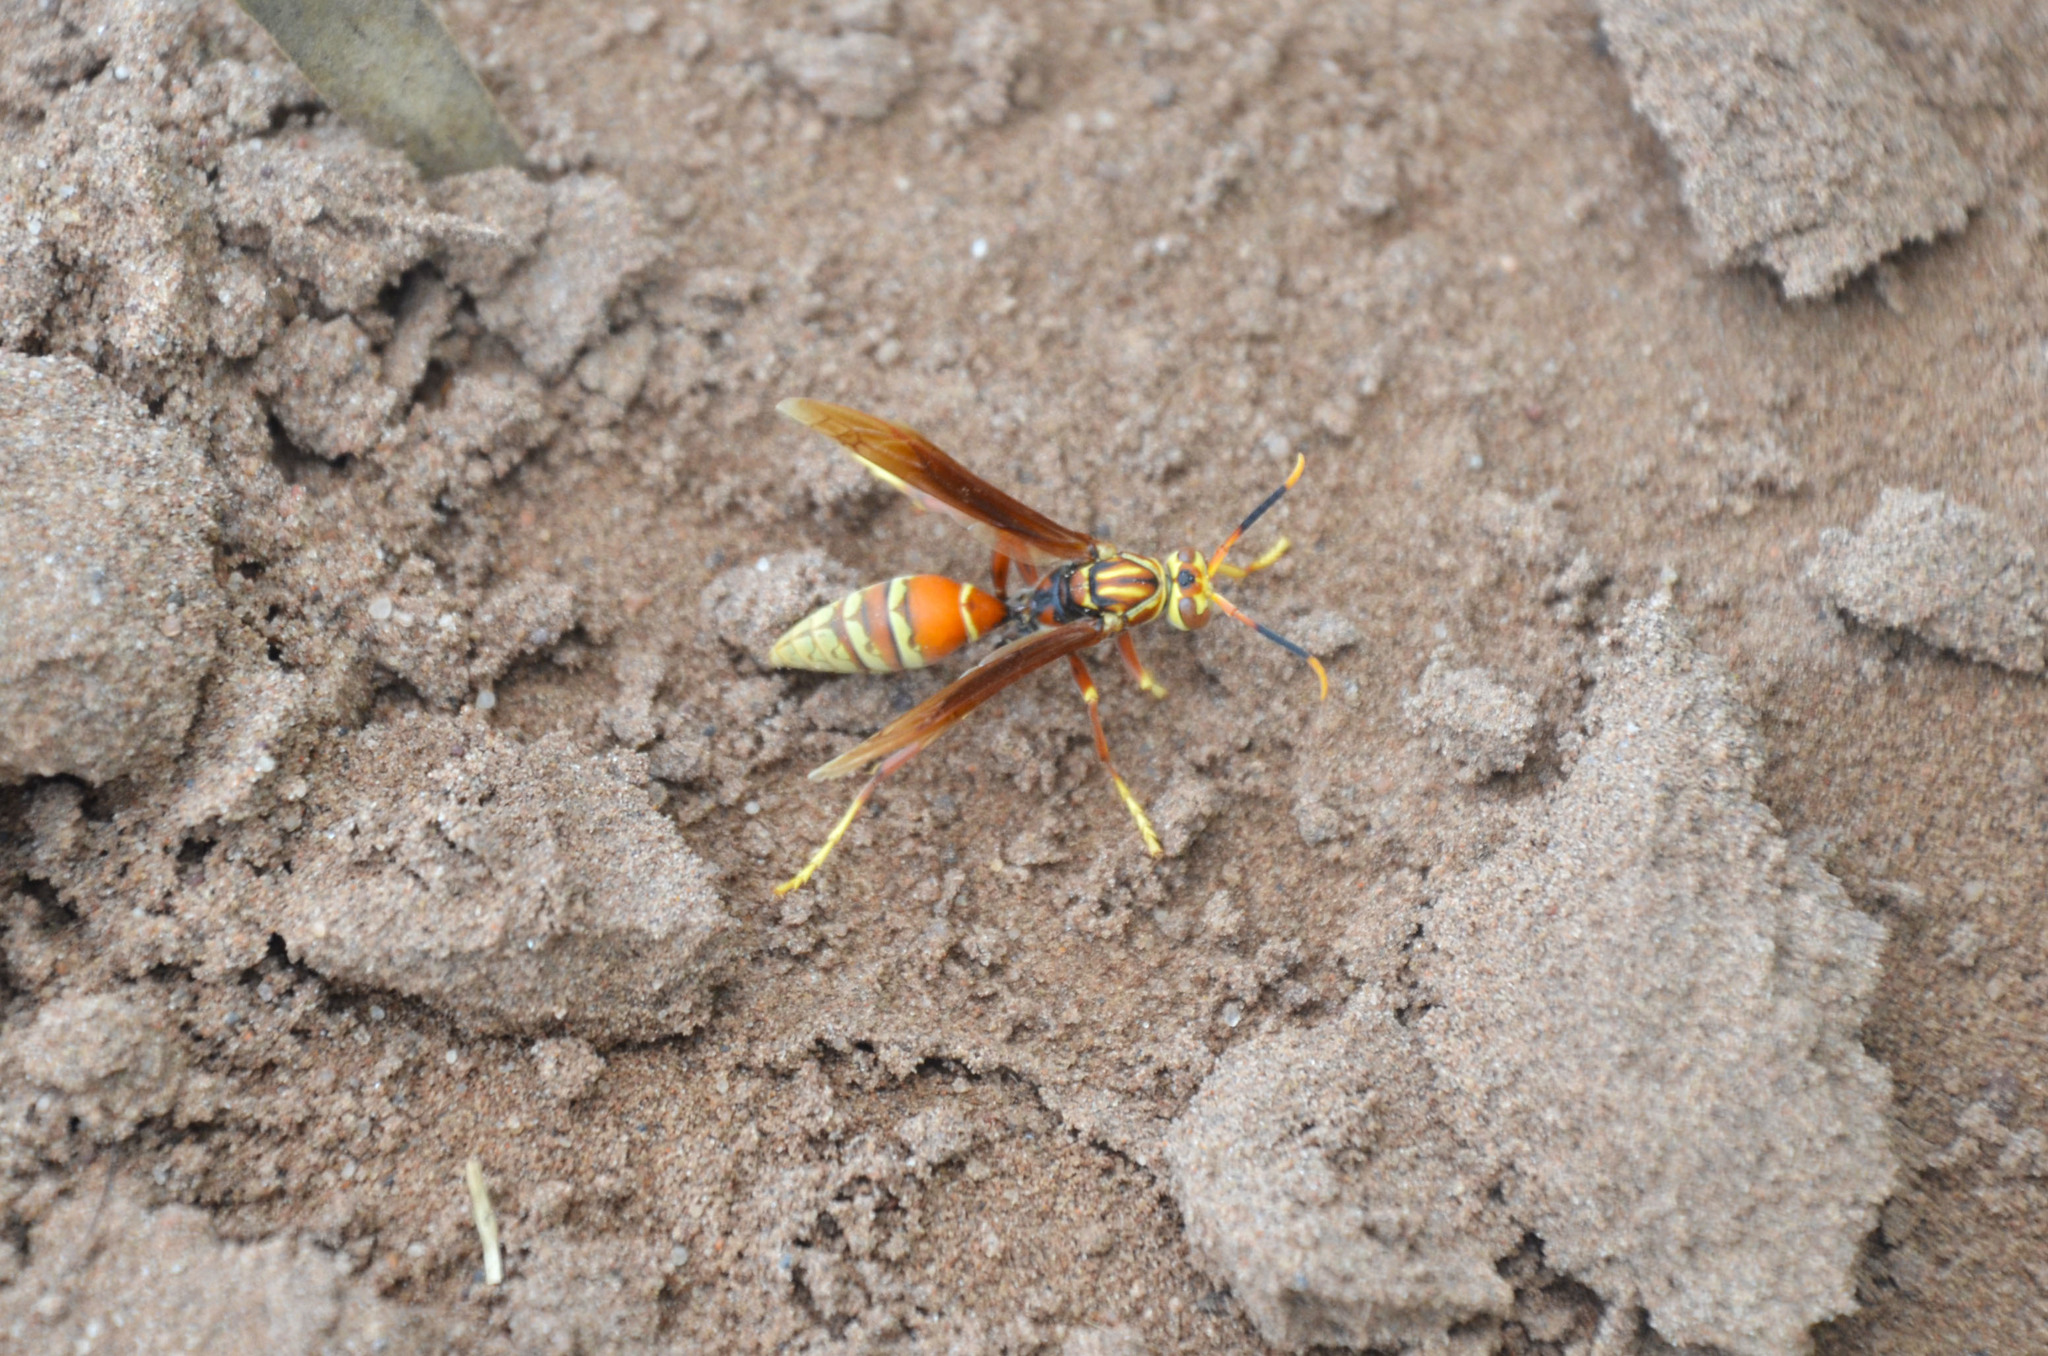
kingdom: Animalia
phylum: Arthropoda
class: Insecta
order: Hymenoptera
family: Eumenidae
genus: Polistes
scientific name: Polistes buyssoni
